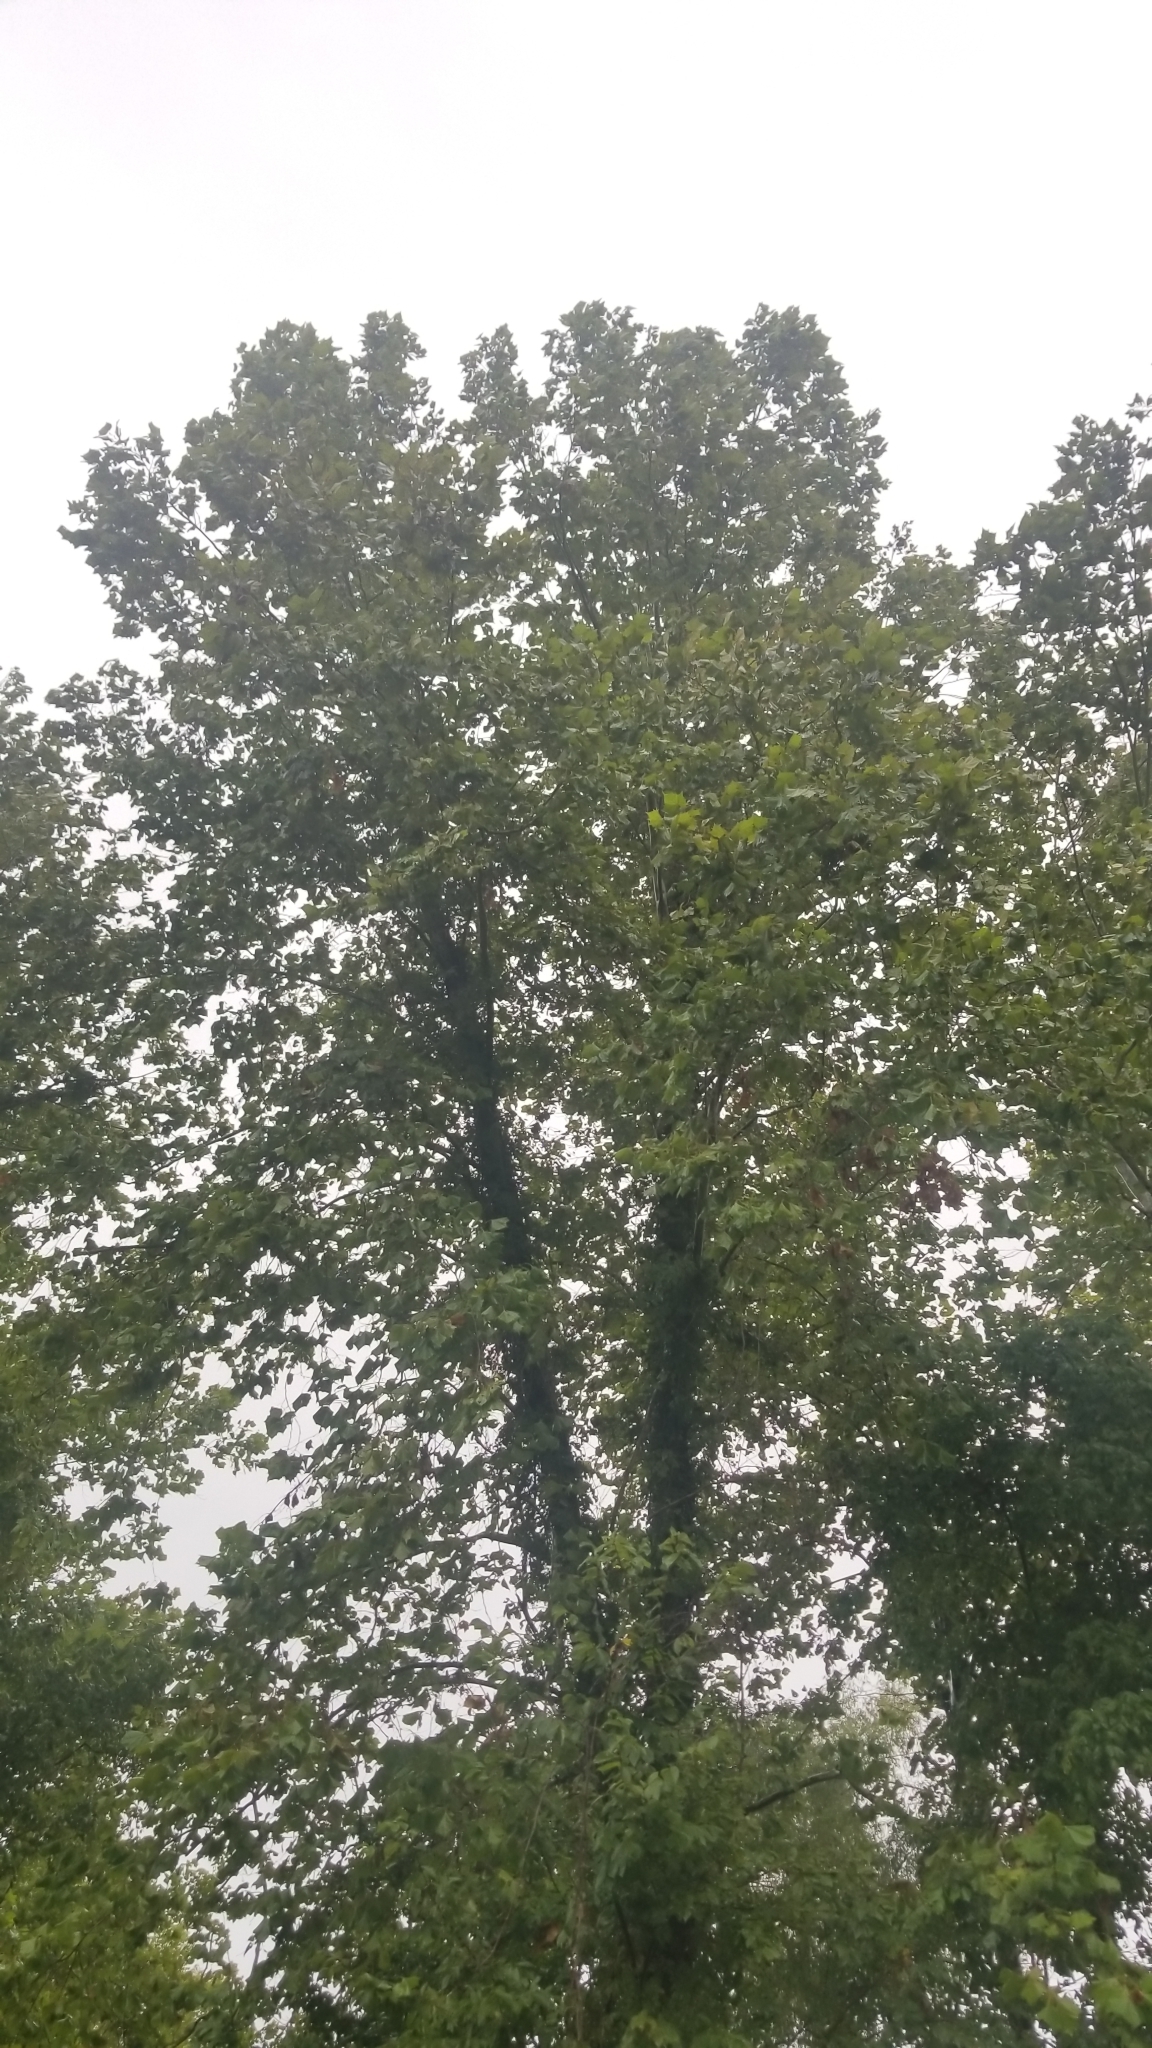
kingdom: Plantae
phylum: Tracheophyta
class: Magnoliopsida
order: Proteales
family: Platanaceae
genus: Platanus
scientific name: Platanus occidentalis
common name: American sycamore
